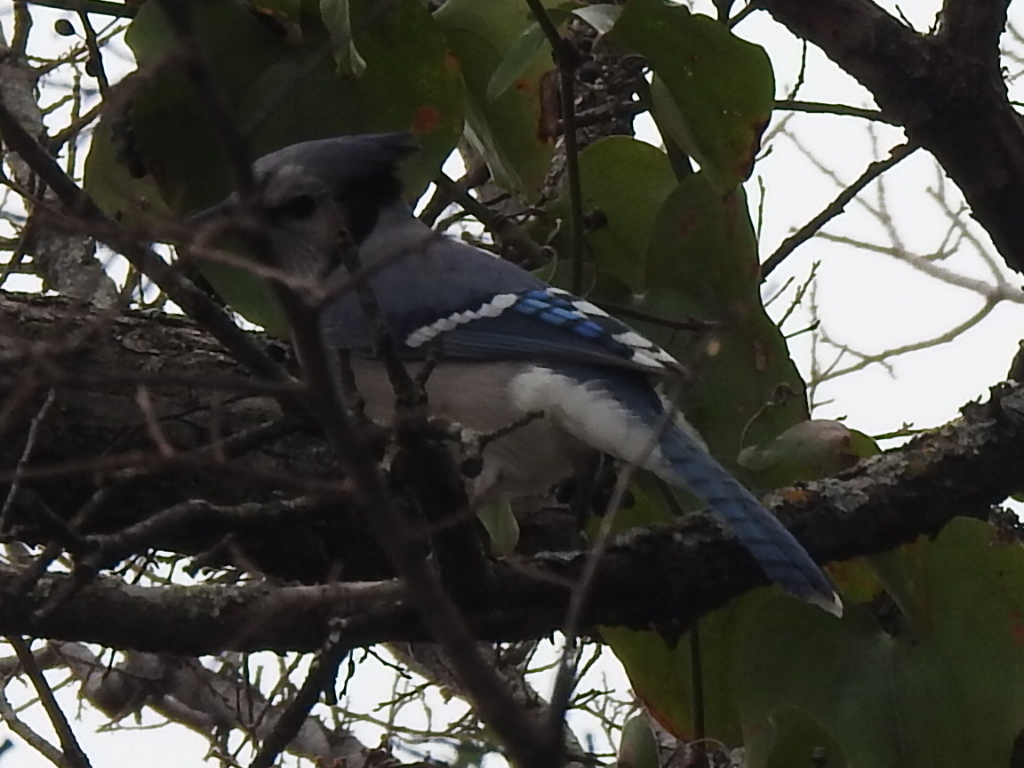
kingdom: Animalia
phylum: Chordata
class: Aves
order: Passeriformes
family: Corvidae
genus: Cyanocitta
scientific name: Cyanocitta cristata
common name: Blue jay
